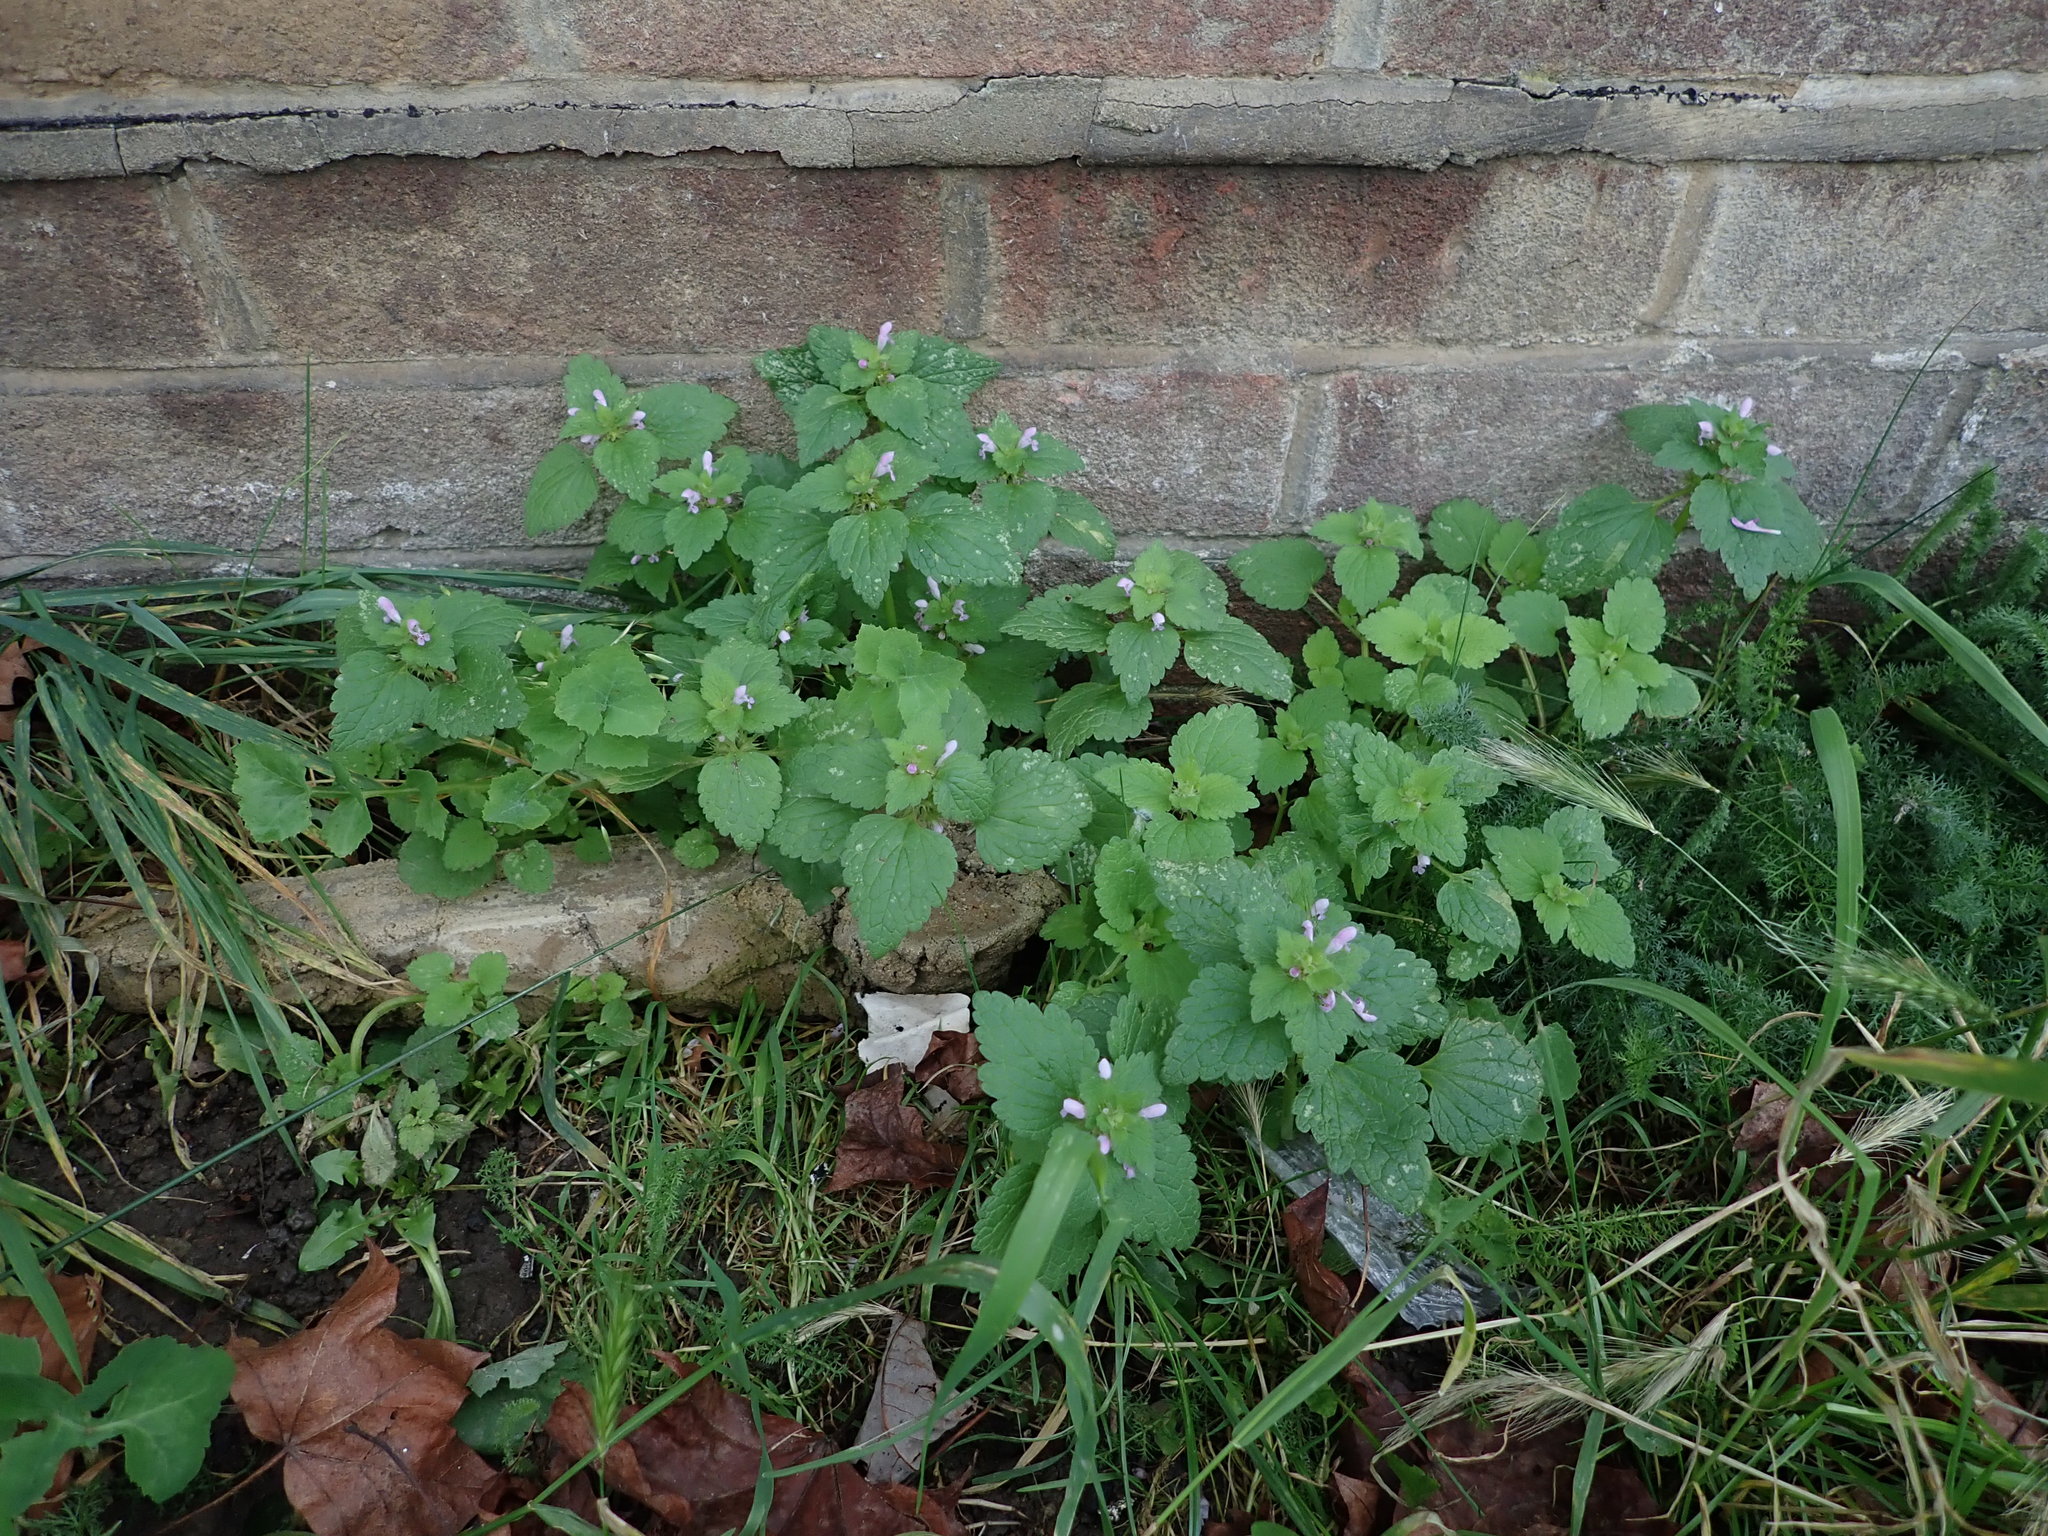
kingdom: Plantae
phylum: Tracheophyta
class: Magnoliopsida
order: Lamiales
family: Lamiaceae
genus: Lamium
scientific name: Lamium purpureum
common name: Red dead-nettle
